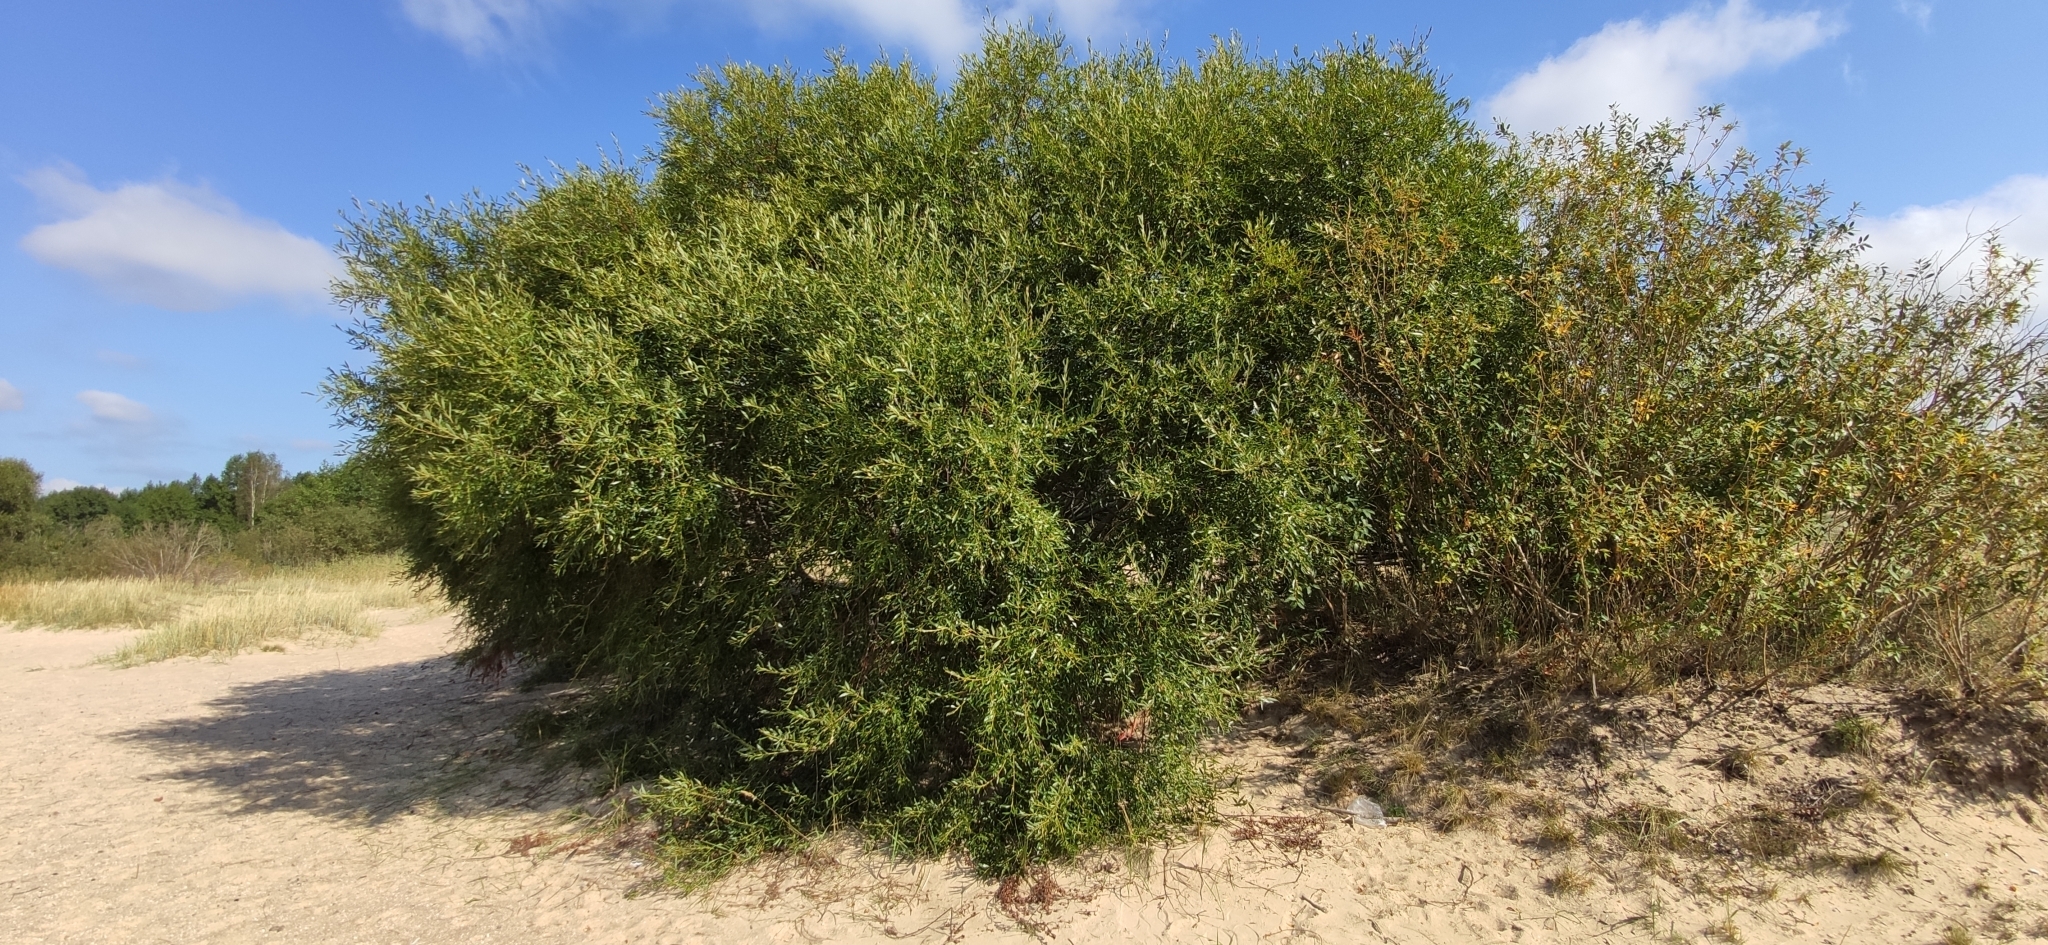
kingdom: Plantae
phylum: Tracheophyta
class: Magnoliopsida
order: Malpighiales
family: Salicaceae
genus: Salix
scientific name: Salix triandra
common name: Almond willow
